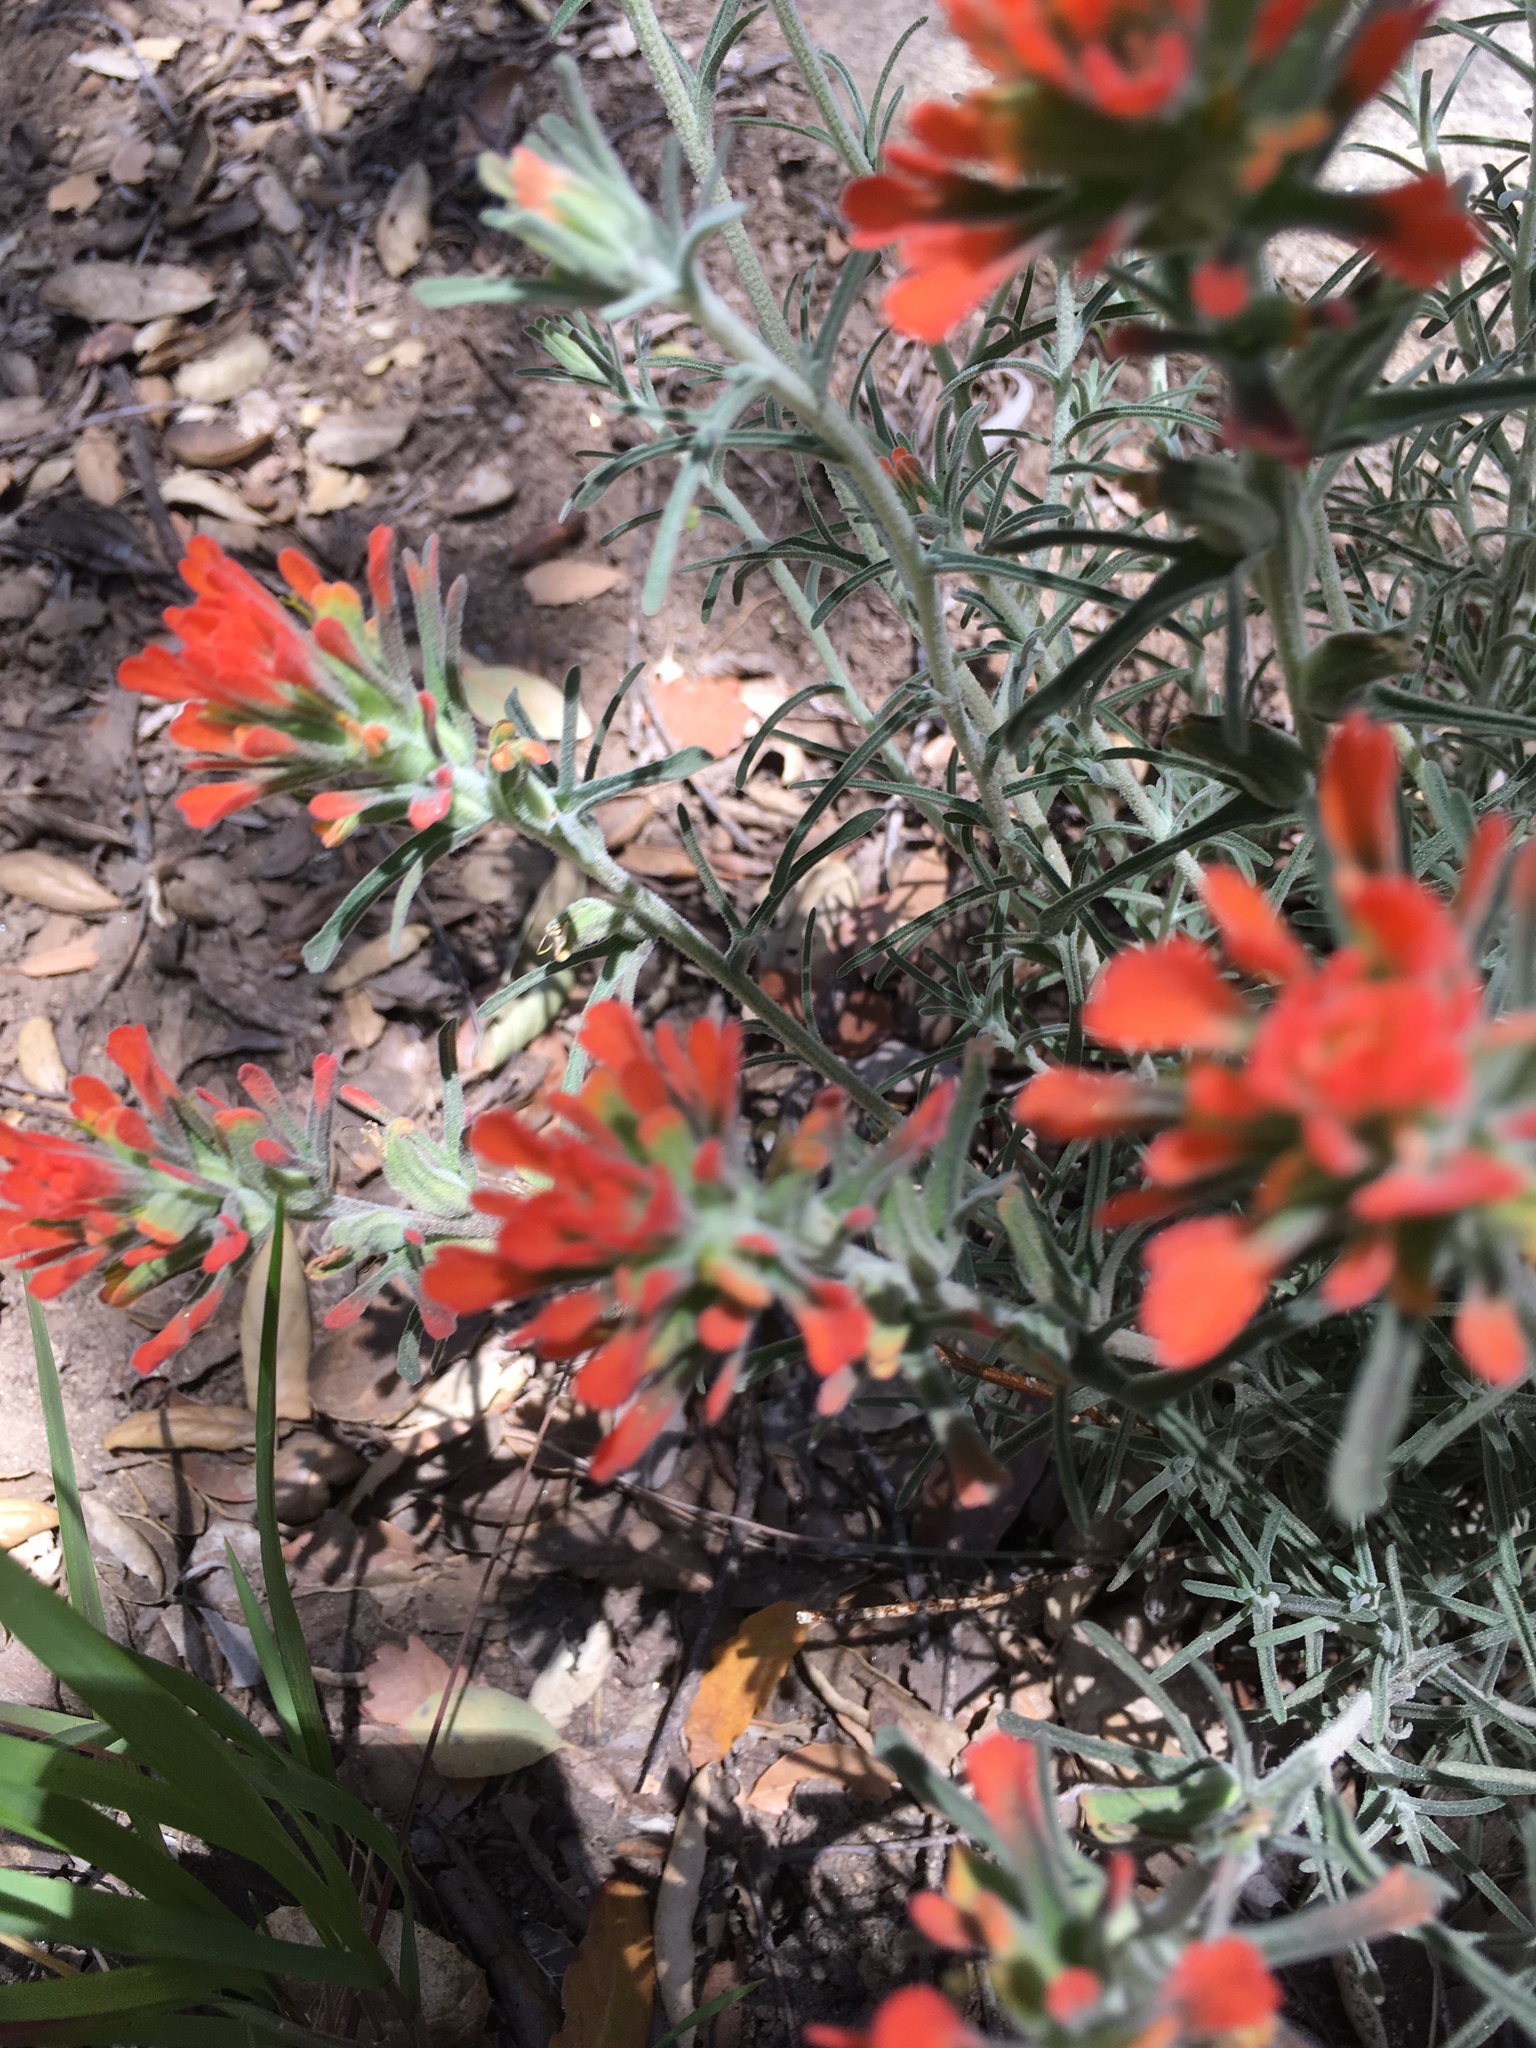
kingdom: Plantae
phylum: Tracheophyta
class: Magnoliopsida
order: Lamiales
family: Orobanchaceae
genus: Castilleja
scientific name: Castilleja foliolosa
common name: Woolly indian paintbrush
